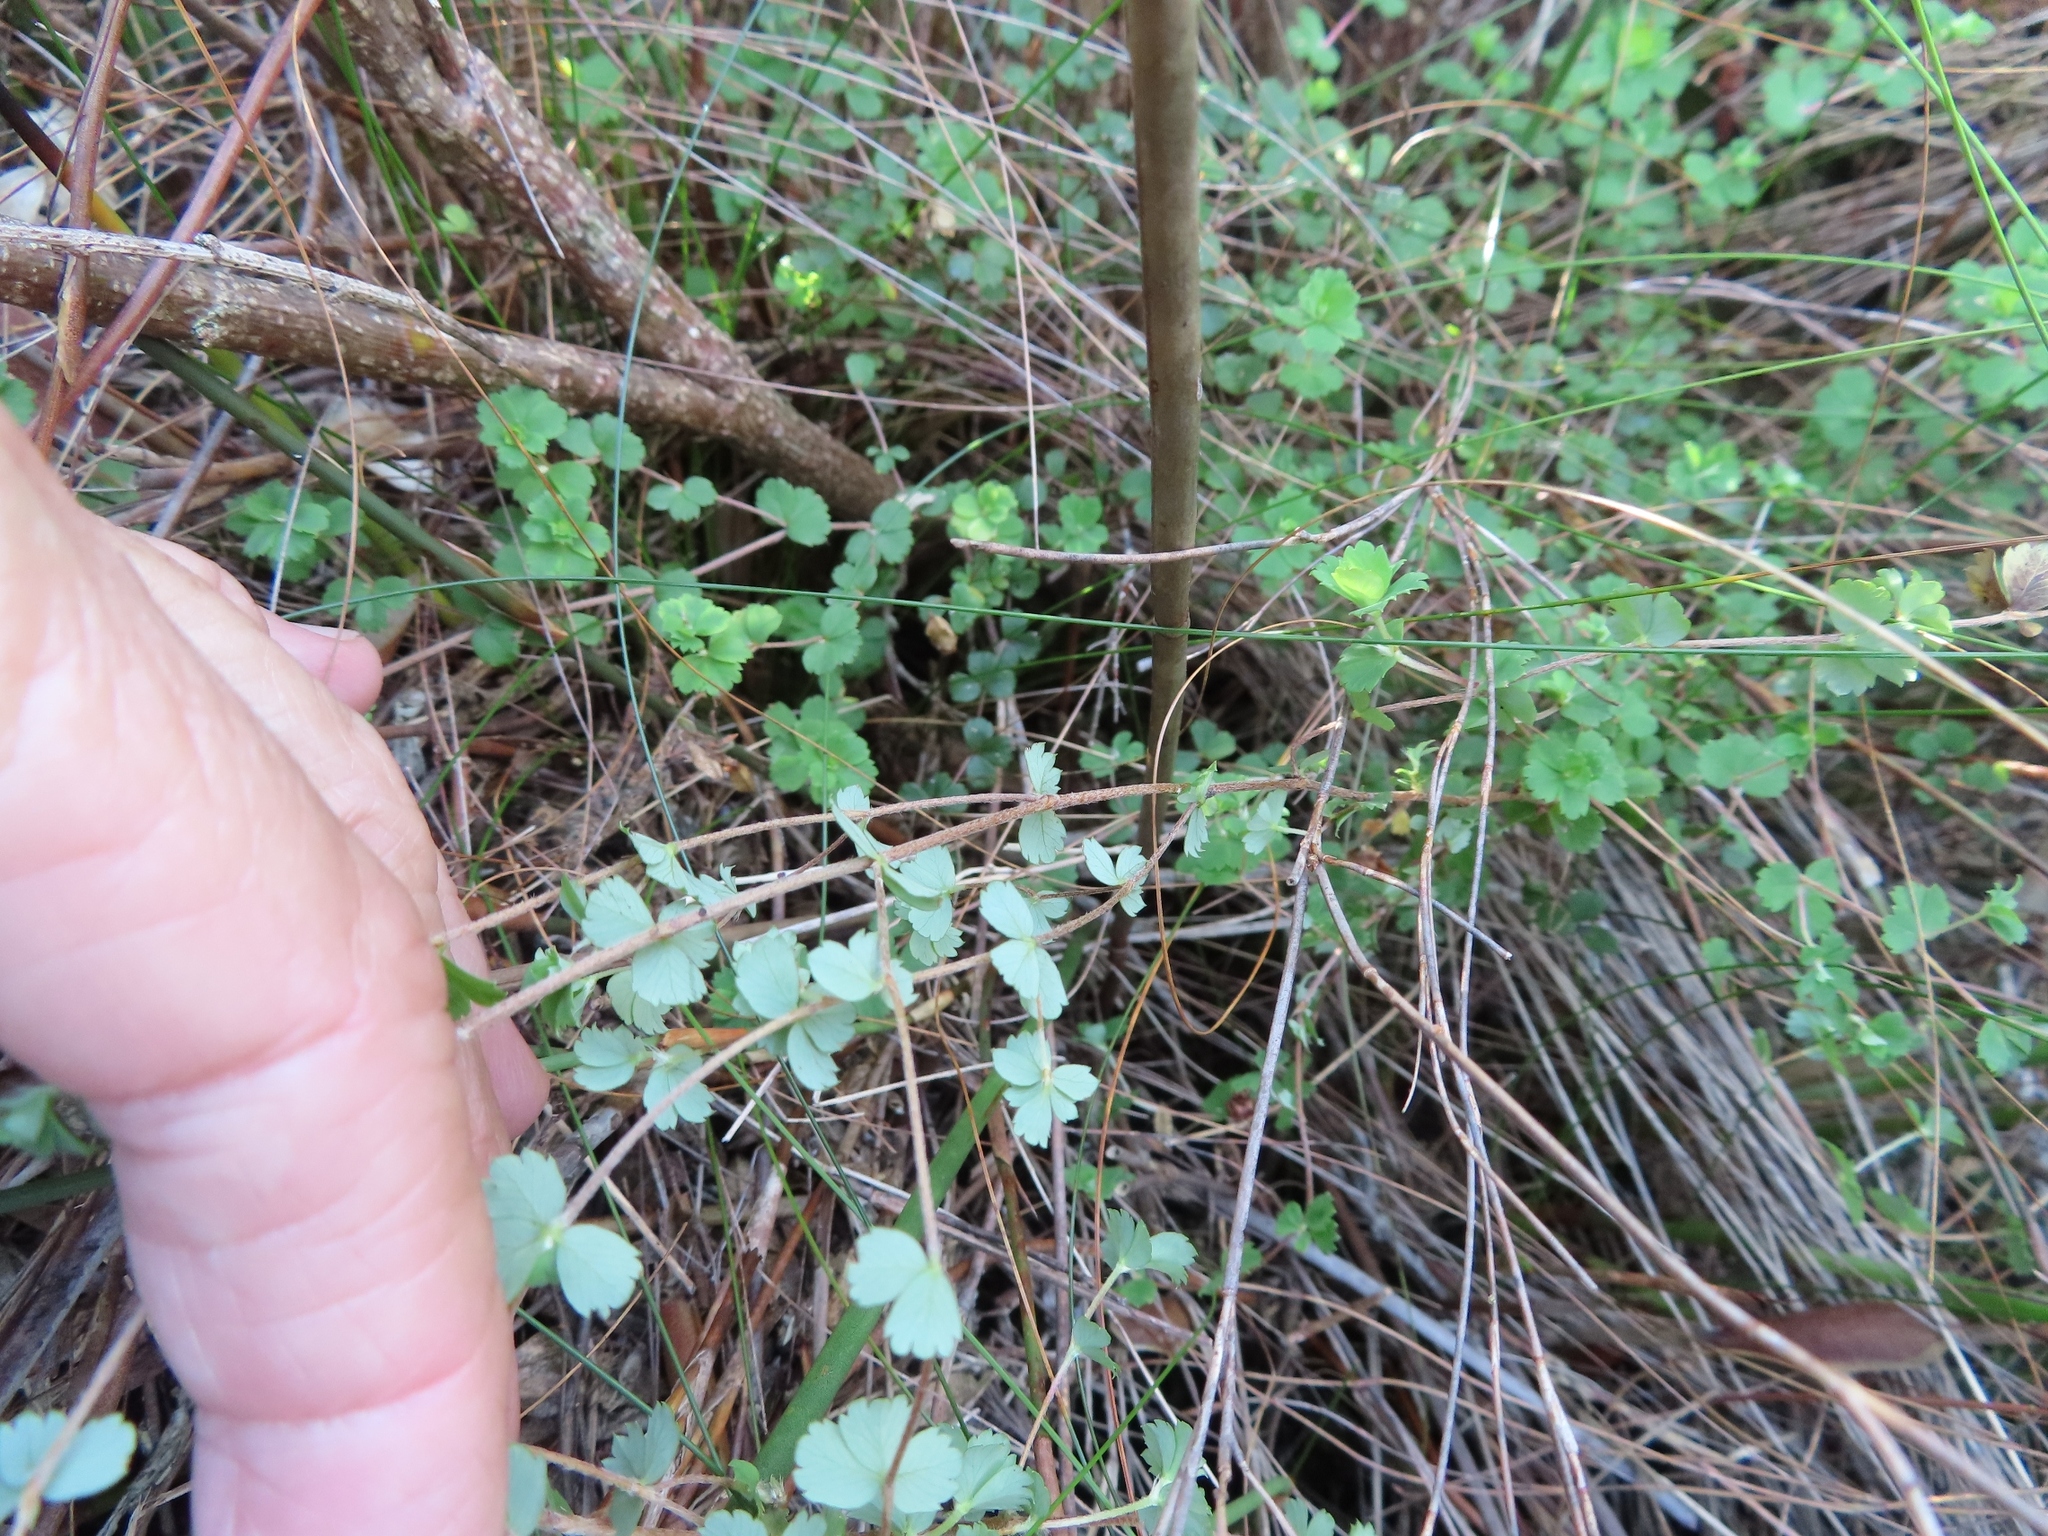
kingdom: Plantae
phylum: Tracheophyta
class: Magnoliopsida
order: Rosales
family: Rosaceae
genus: Cliffortia
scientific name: Cliffortia dentata
